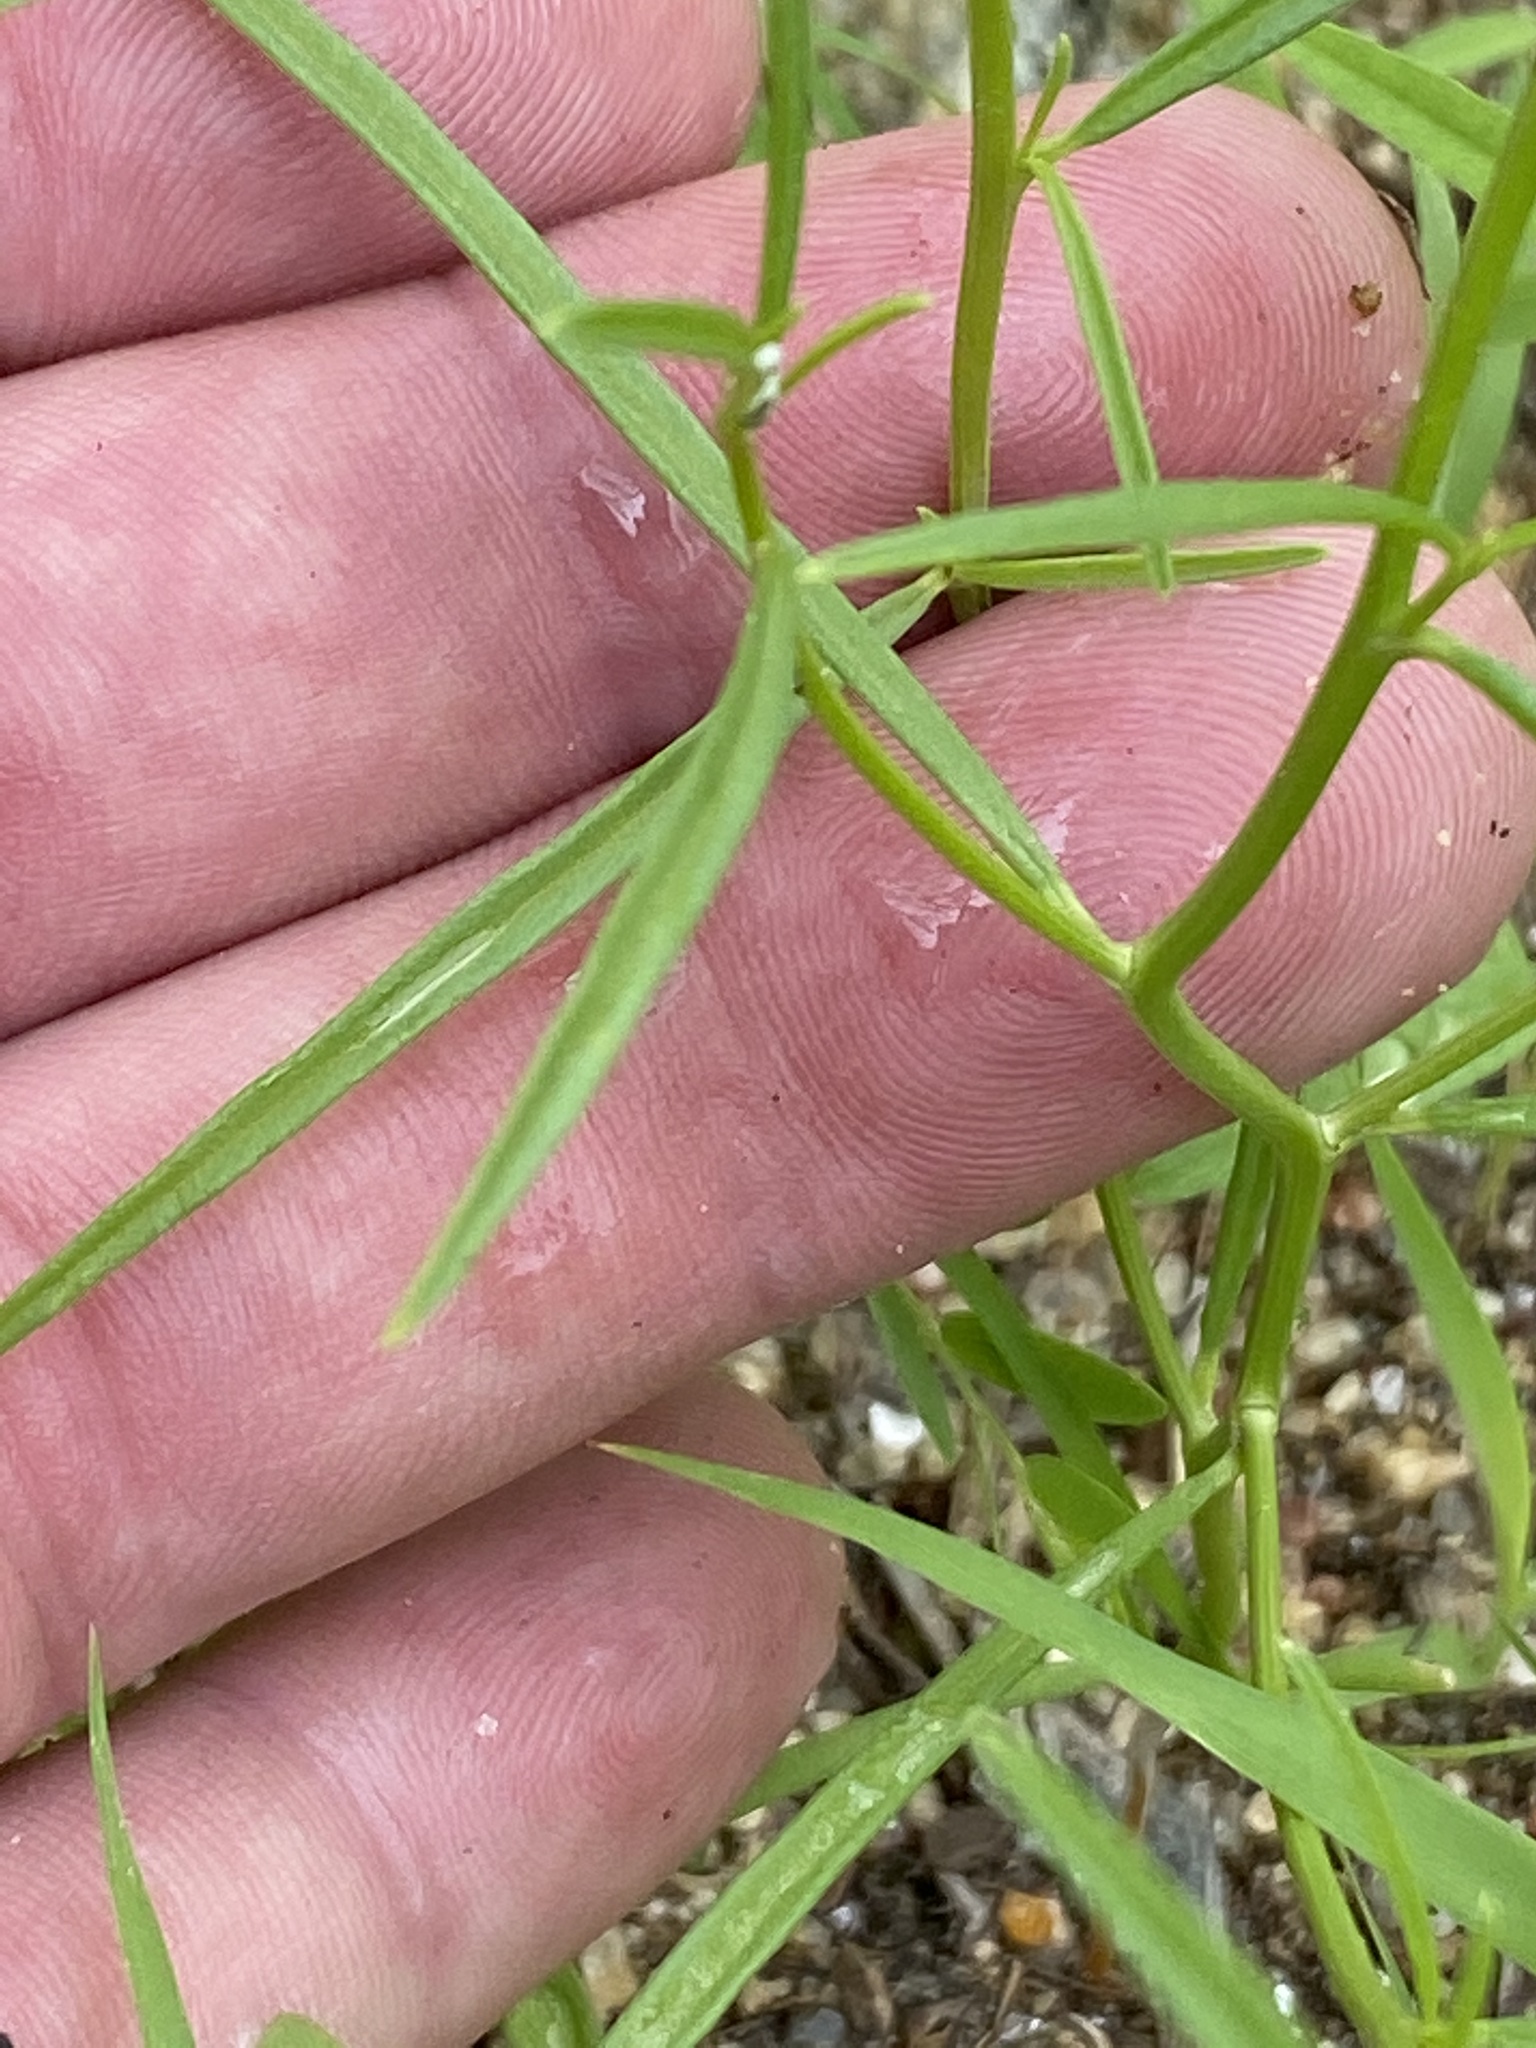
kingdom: Plantae
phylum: Tracheophyta
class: Magnoliopsida
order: Caryophyllales
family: Limeaceae
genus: Limeum
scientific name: Limeum sulcatum
